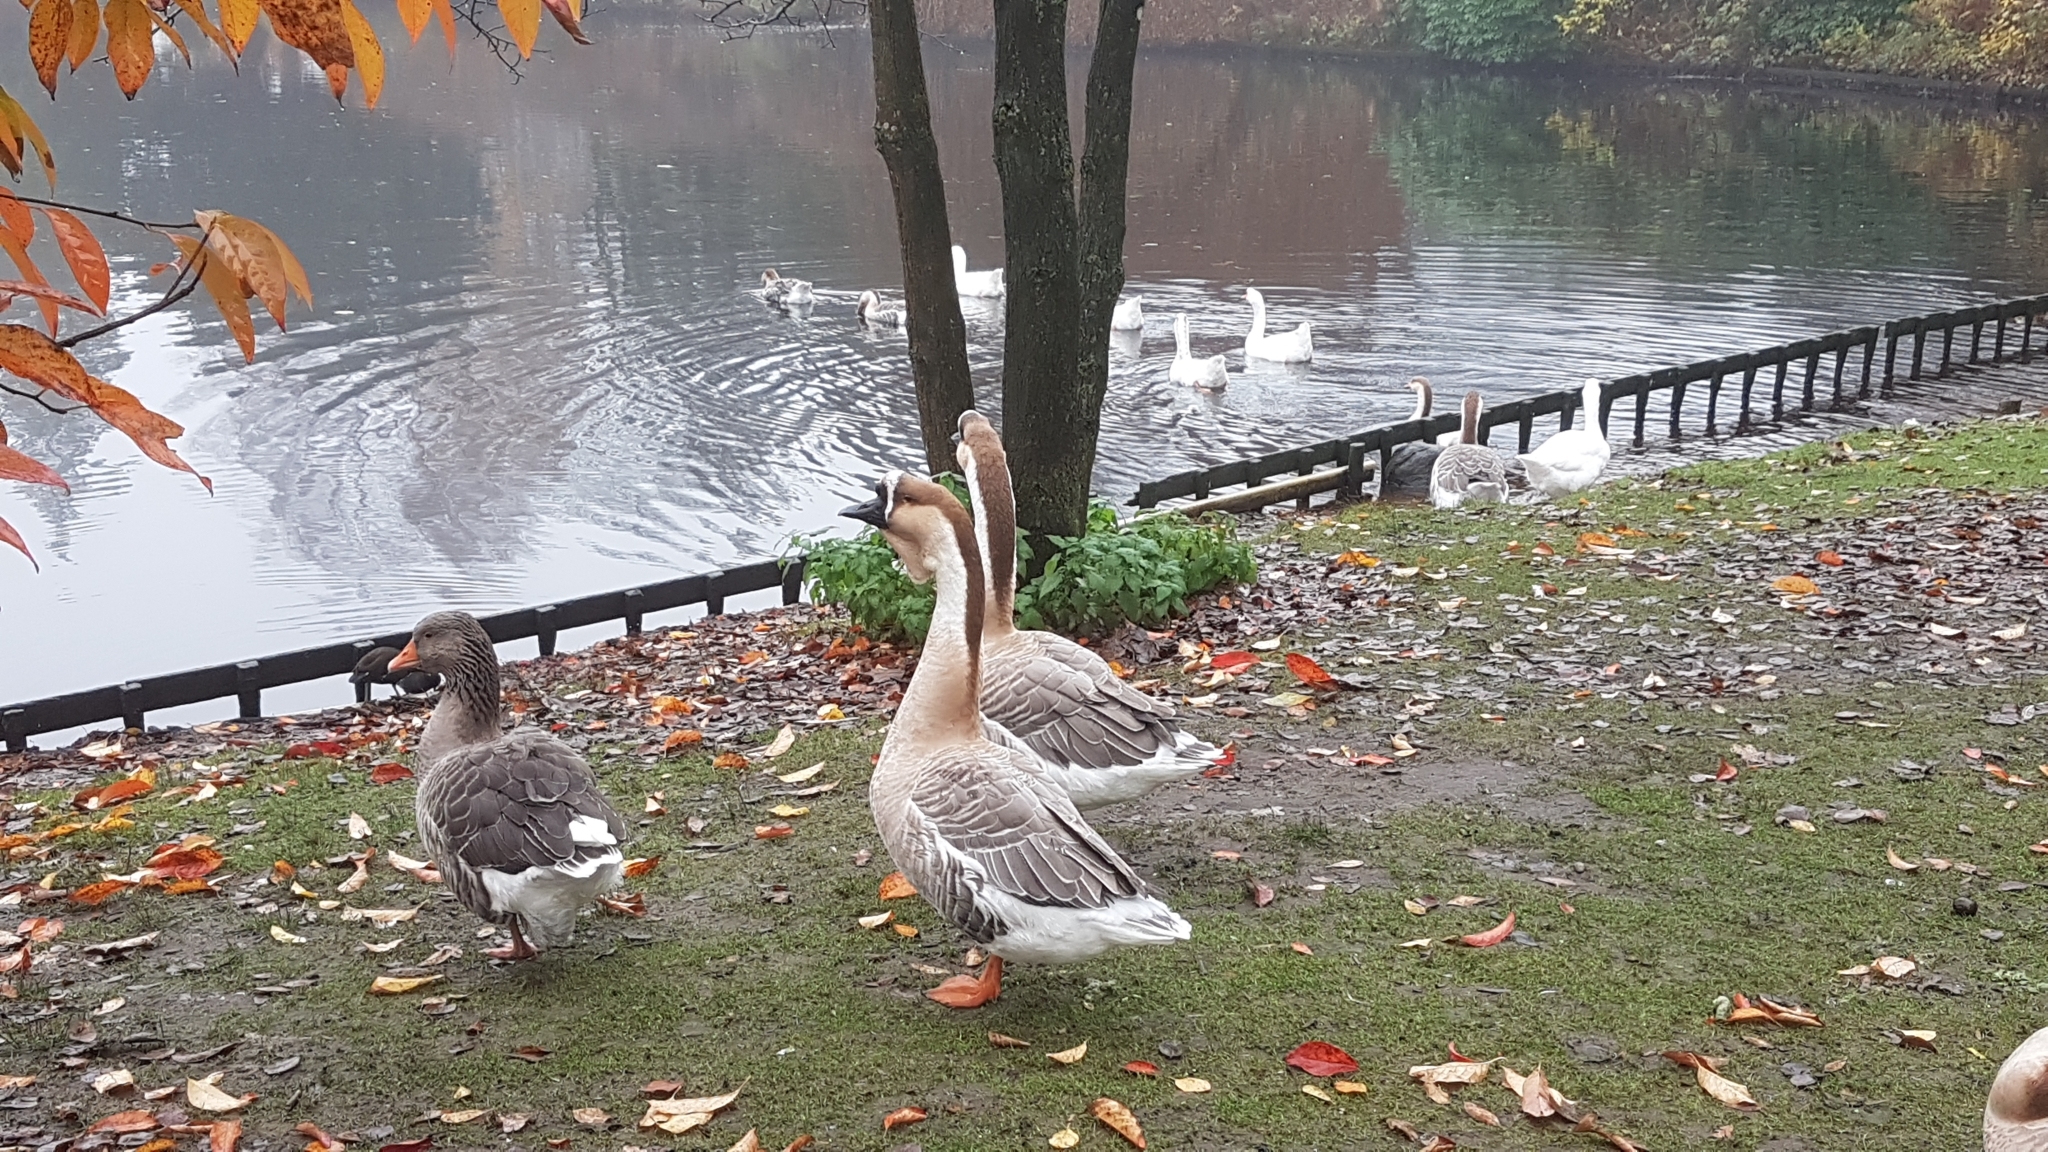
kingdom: Animalia
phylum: Chordata
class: Aves
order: Anseriformes
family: Anatidae
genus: Anser
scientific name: Anser cygnoides
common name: Swan goose
